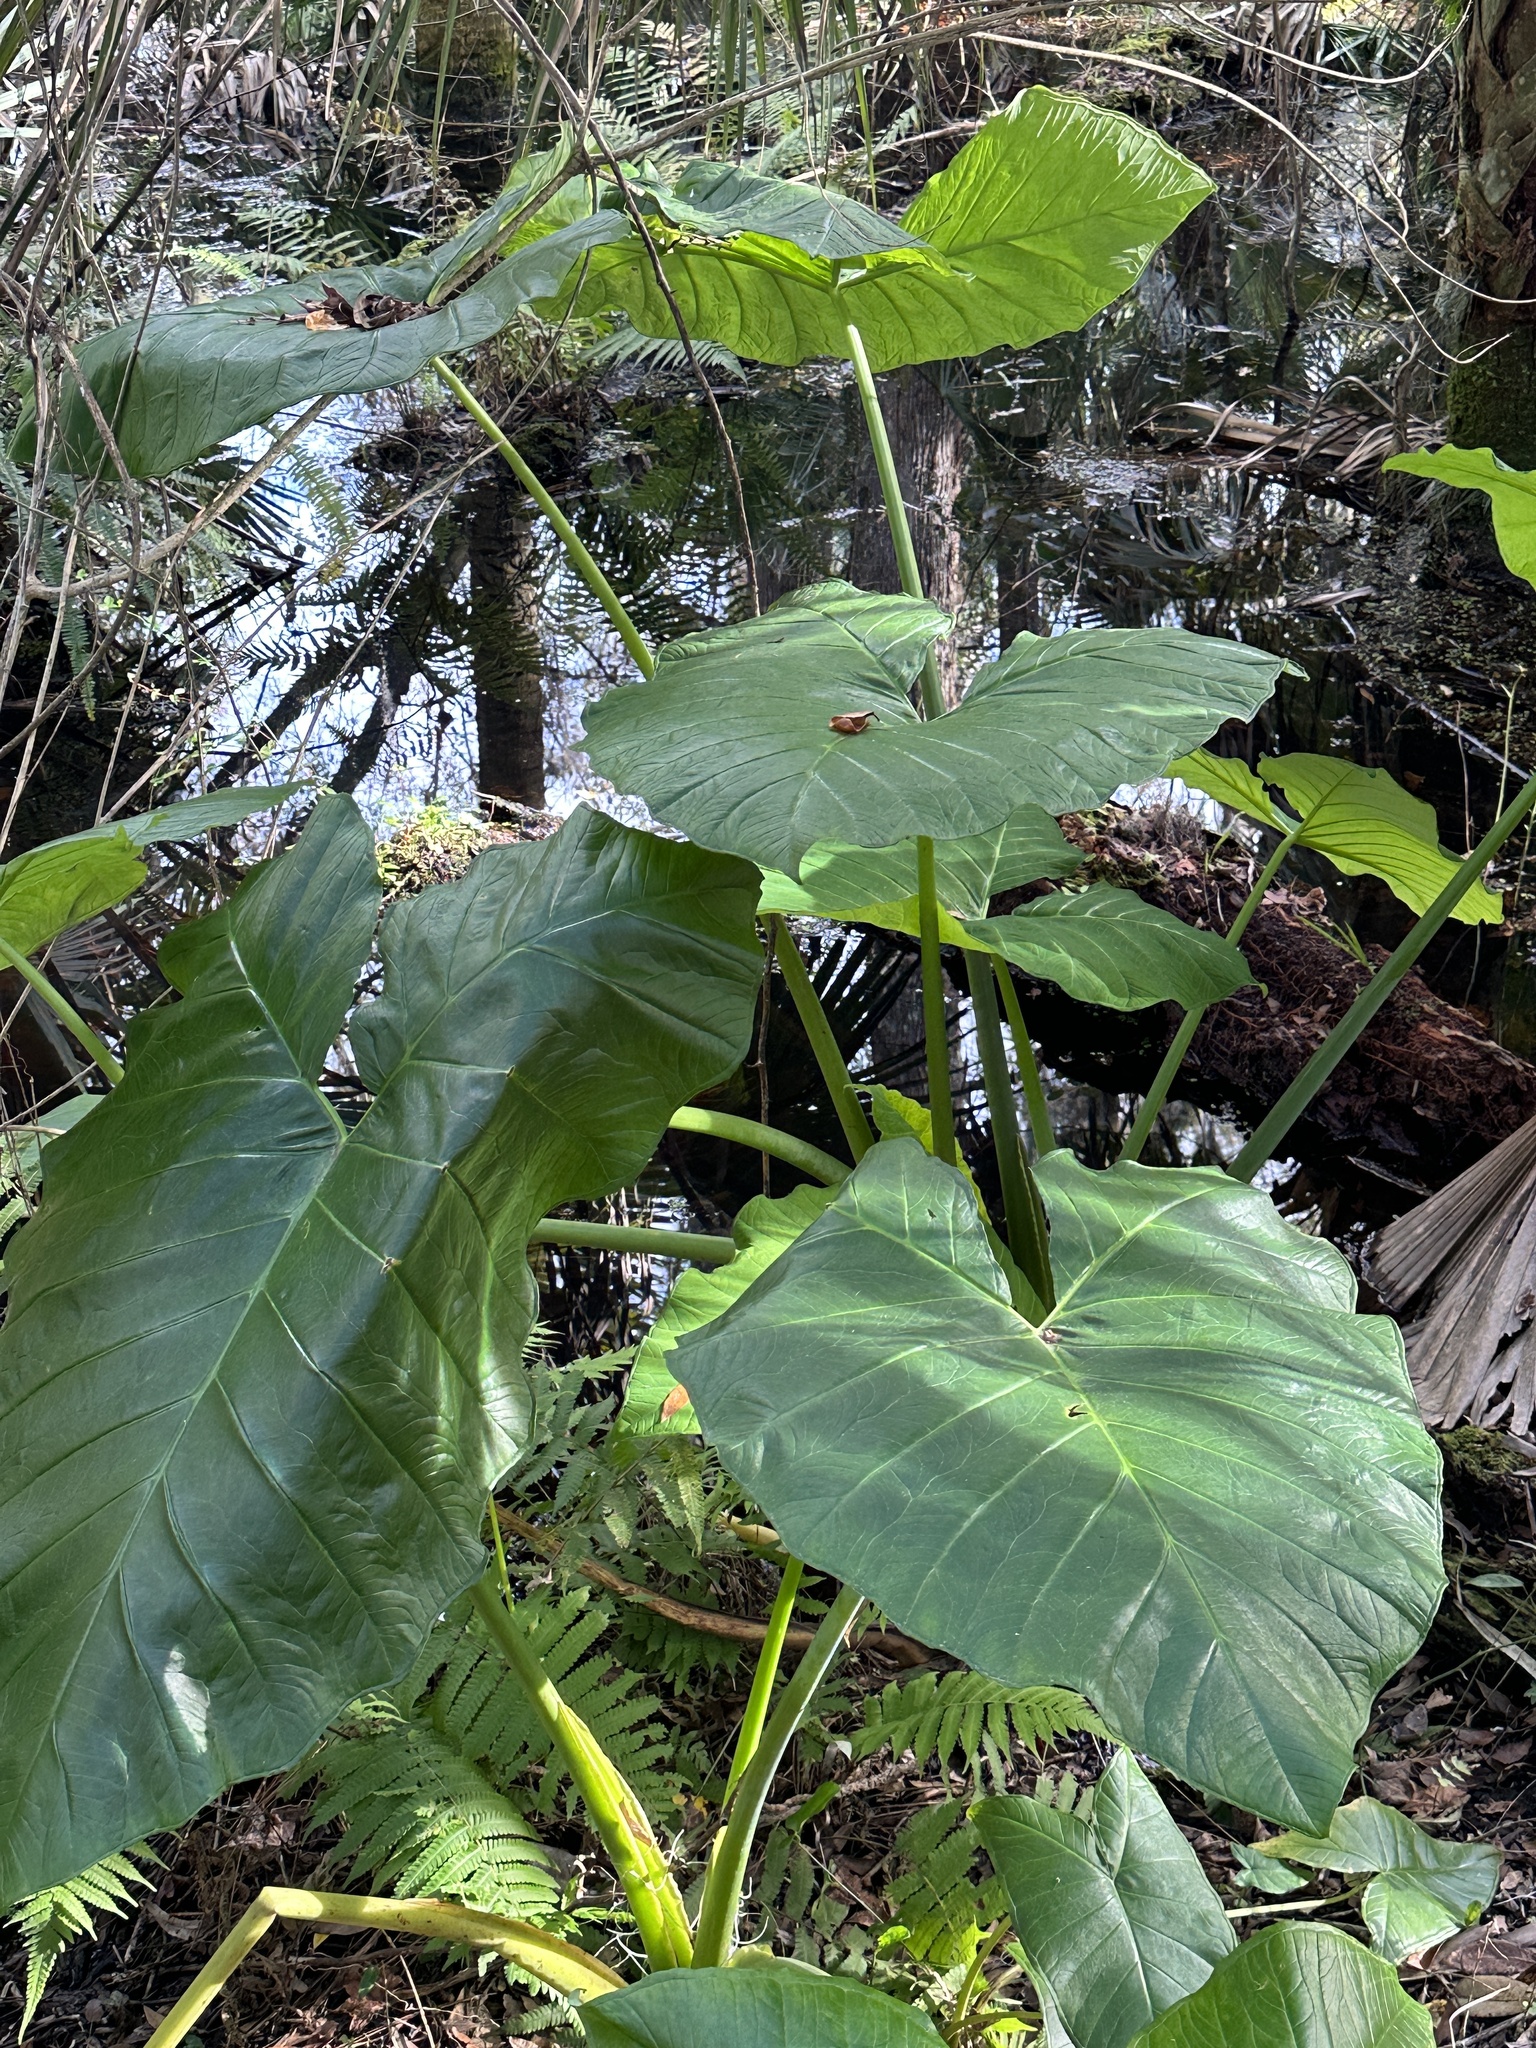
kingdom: Plantae
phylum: Tracheophyta
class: Liliopsida
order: Alismatales
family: Araceae
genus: Xanthosoma
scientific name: Xanthosoma sagittifolium
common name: Arrowleaf elephant's ear
